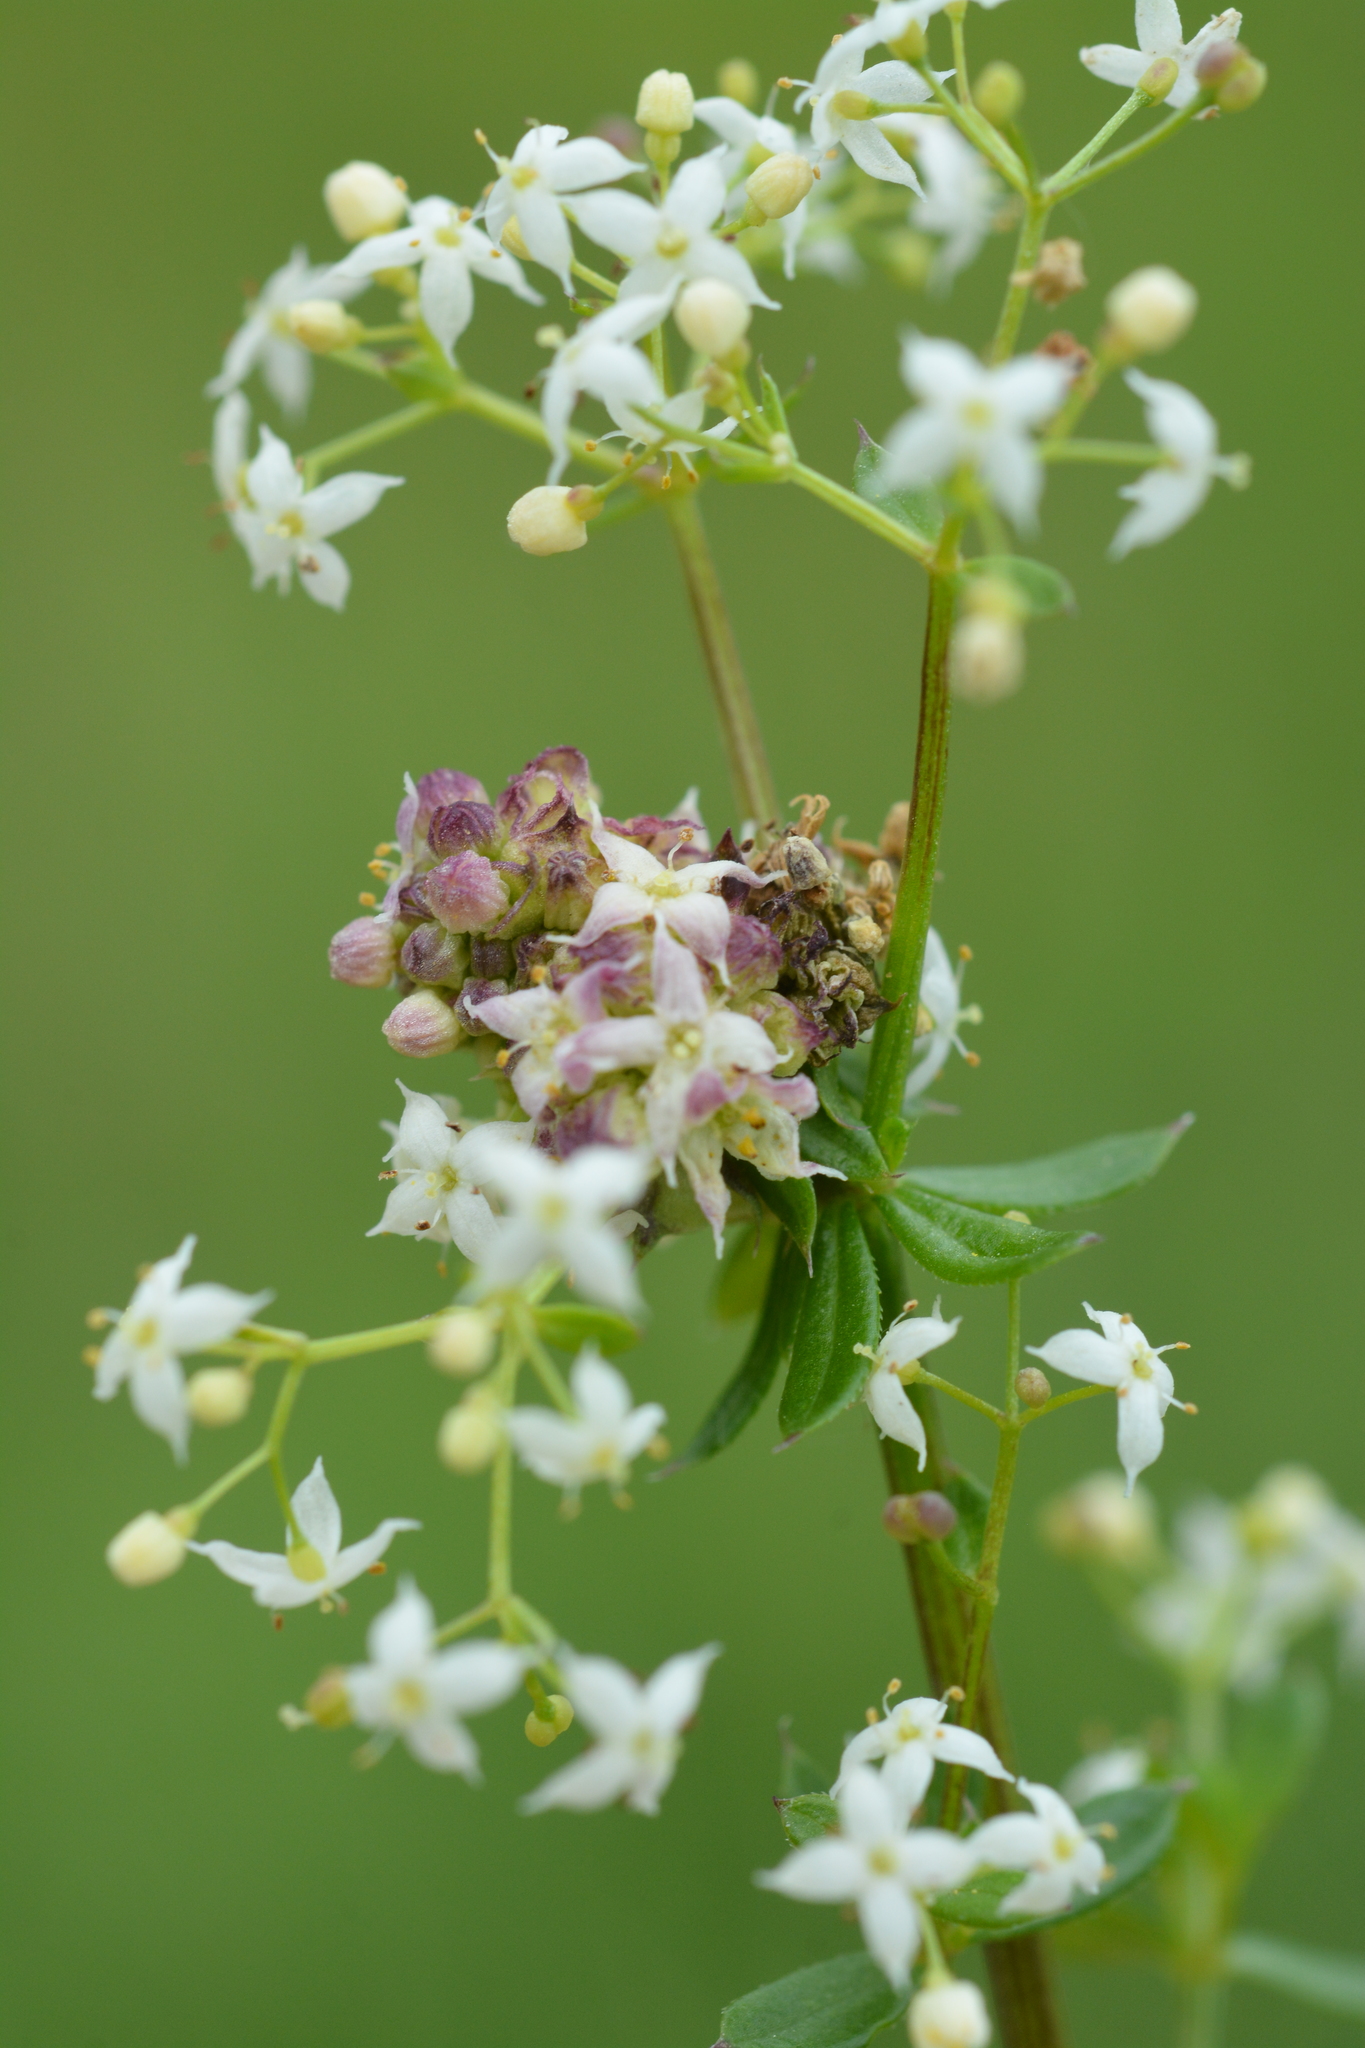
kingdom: Animalia
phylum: Arthropoda
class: Insecta
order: Diptera
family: Cecidomyiidae
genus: Geocrypta
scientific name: Geocrypta galii
